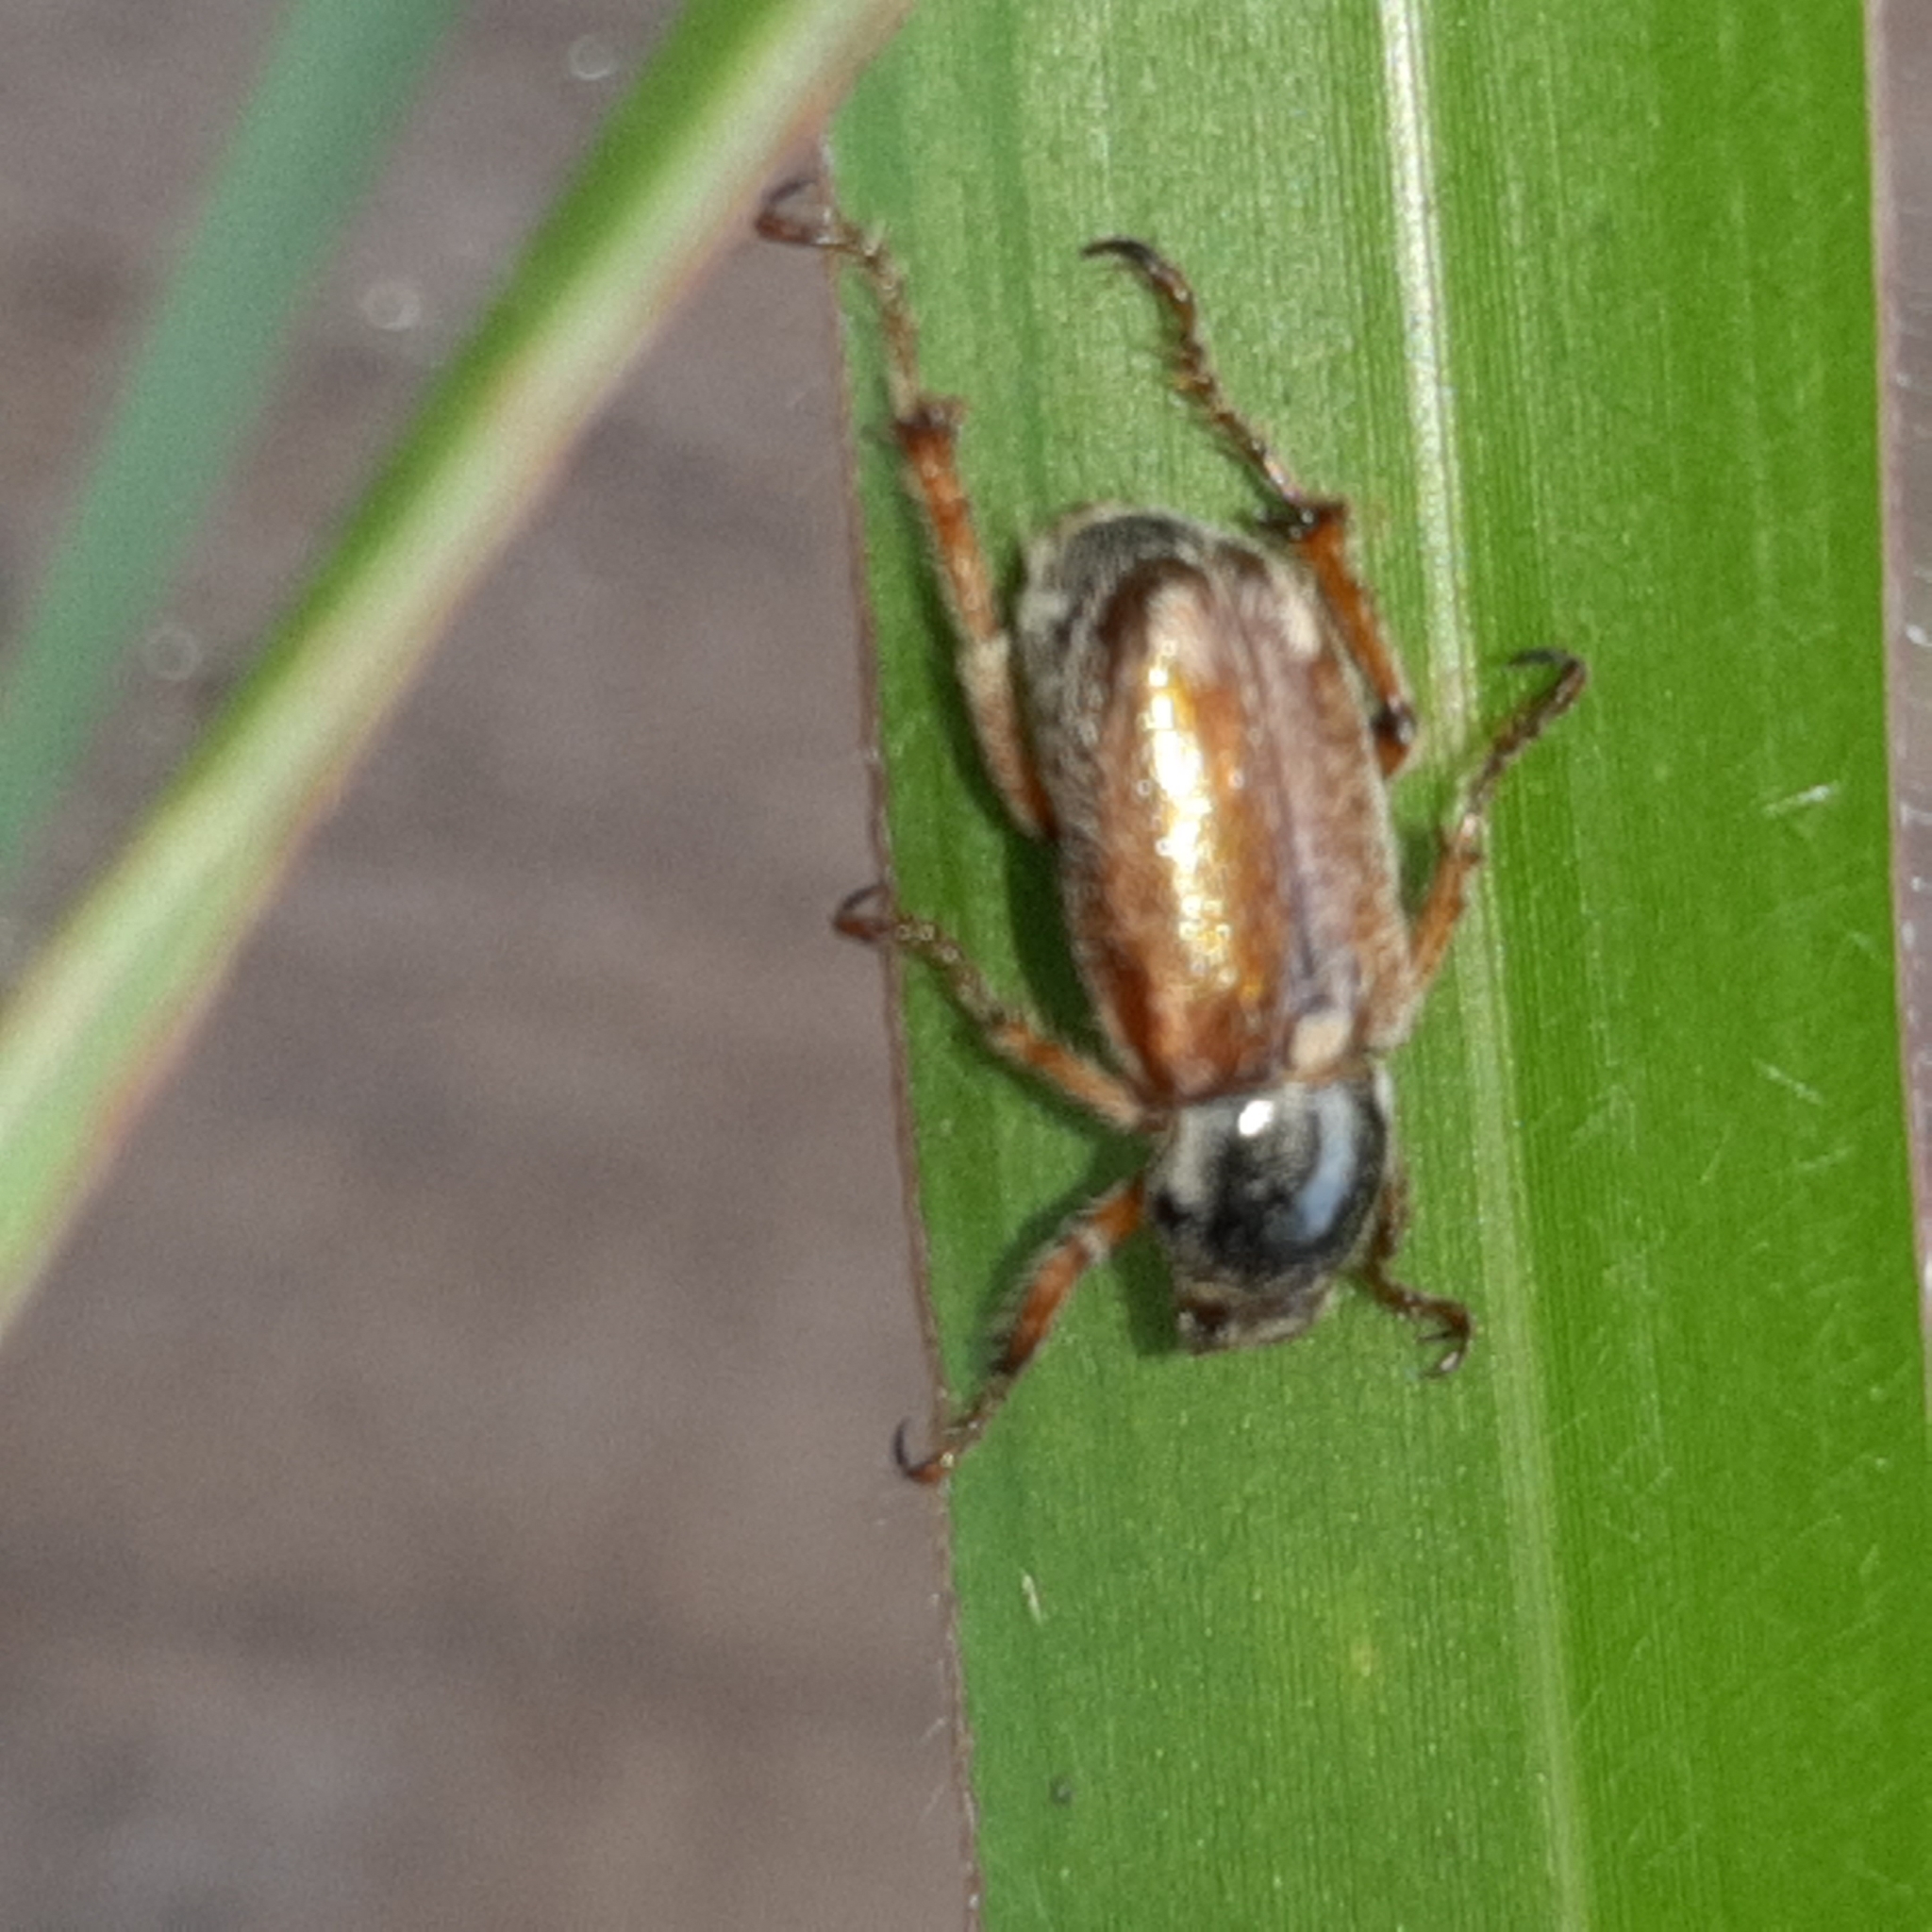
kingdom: Animalia
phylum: Arthropoda
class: Insecta
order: Coleoptera
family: Scarabaeidae
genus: Faula
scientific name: Faula brunneipennis
